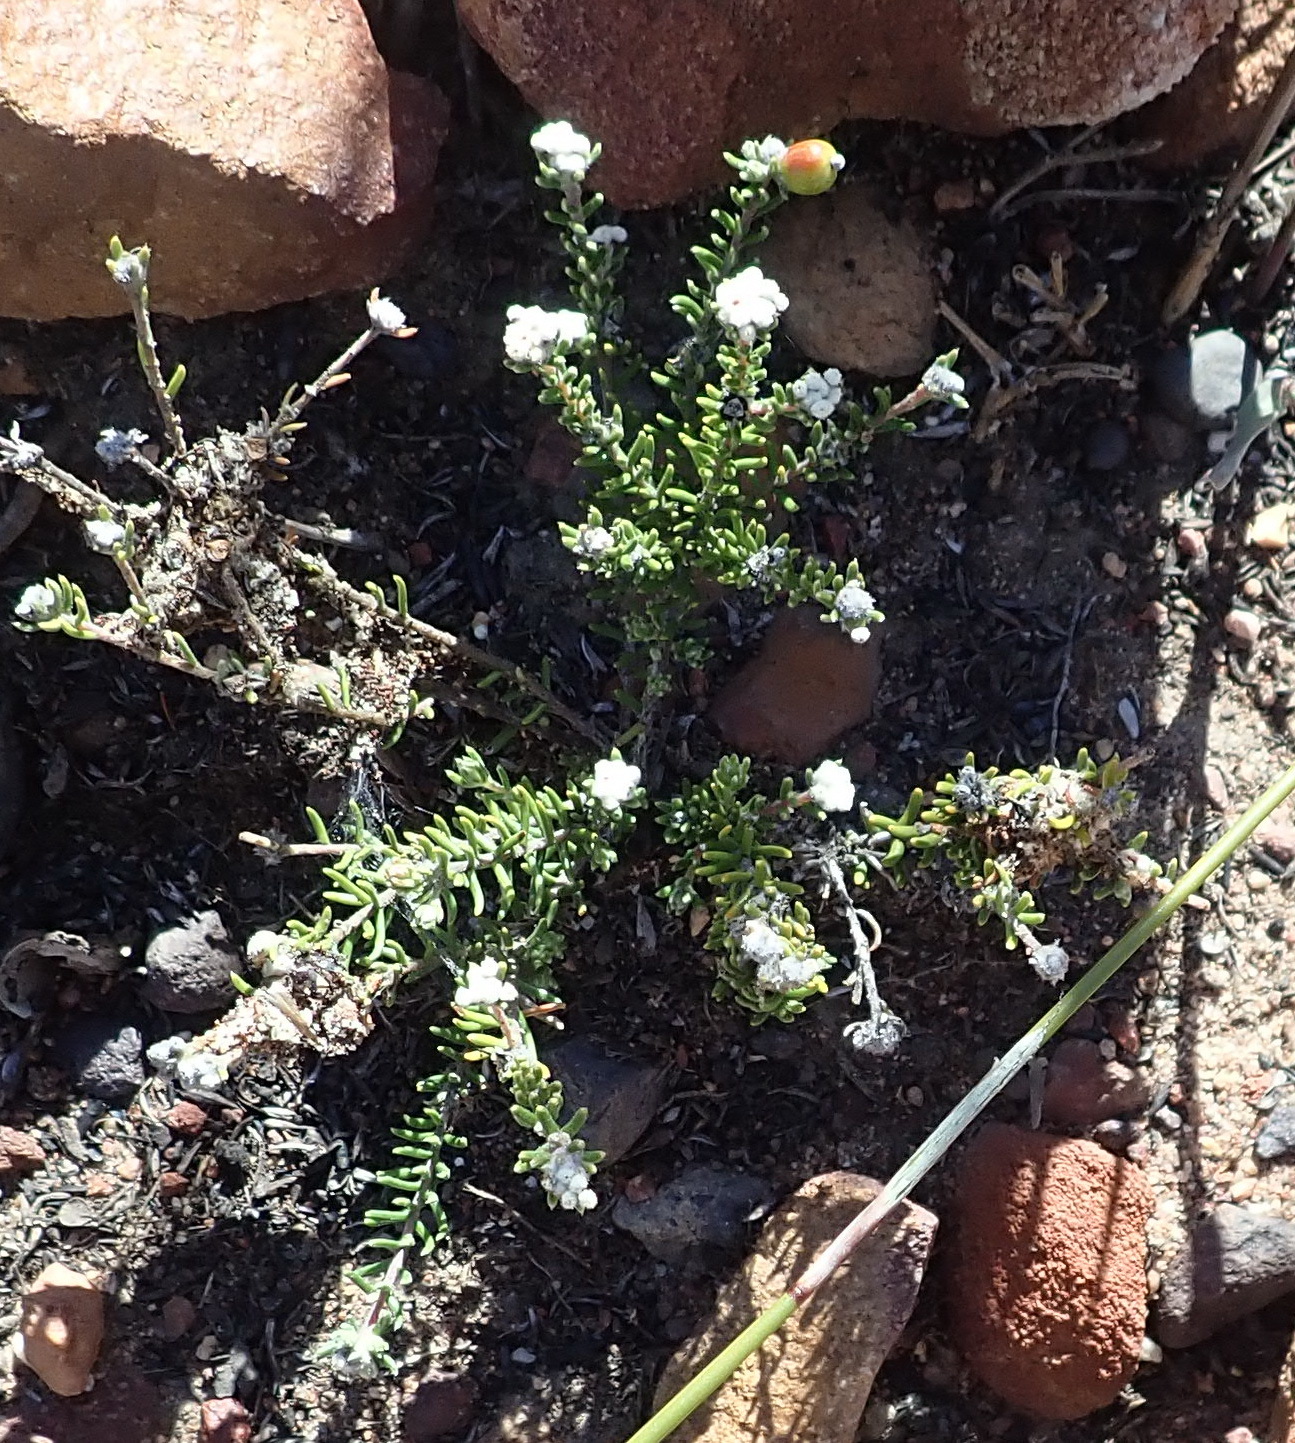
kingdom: Plantae
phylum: Tracheophyta
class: Magnoliopsida
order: Rosales
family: Rhamnaceae
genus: Phylica
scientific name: Phylica karroica
